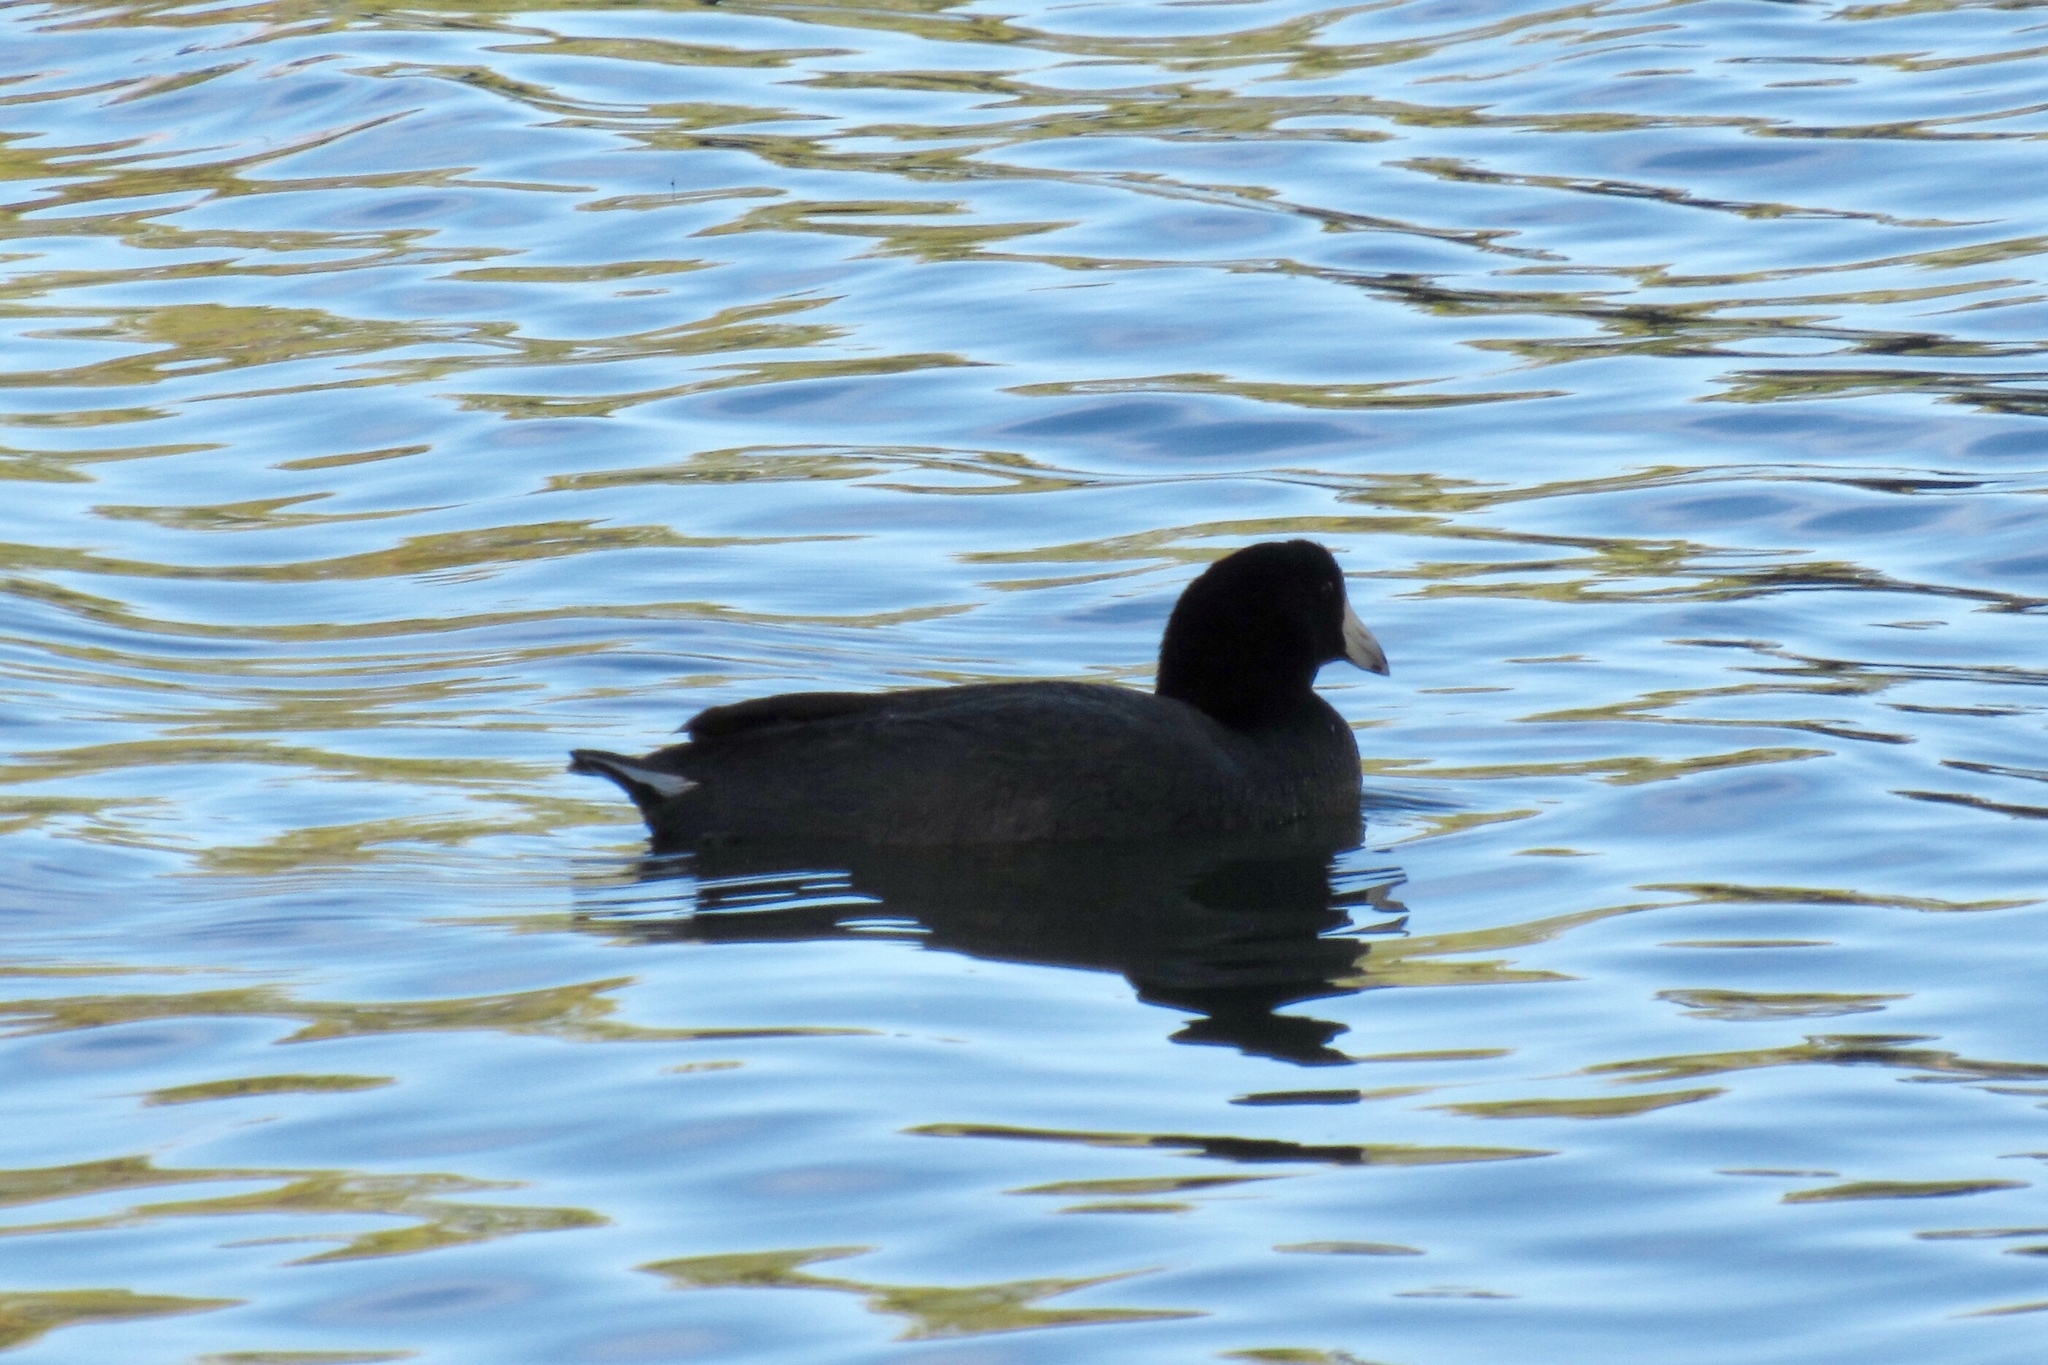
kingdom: Animalia
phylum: Chordata
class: Aves
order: Gruiformes
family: Rallidae
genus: Fulica
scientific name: Fulica americana
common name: American coot
